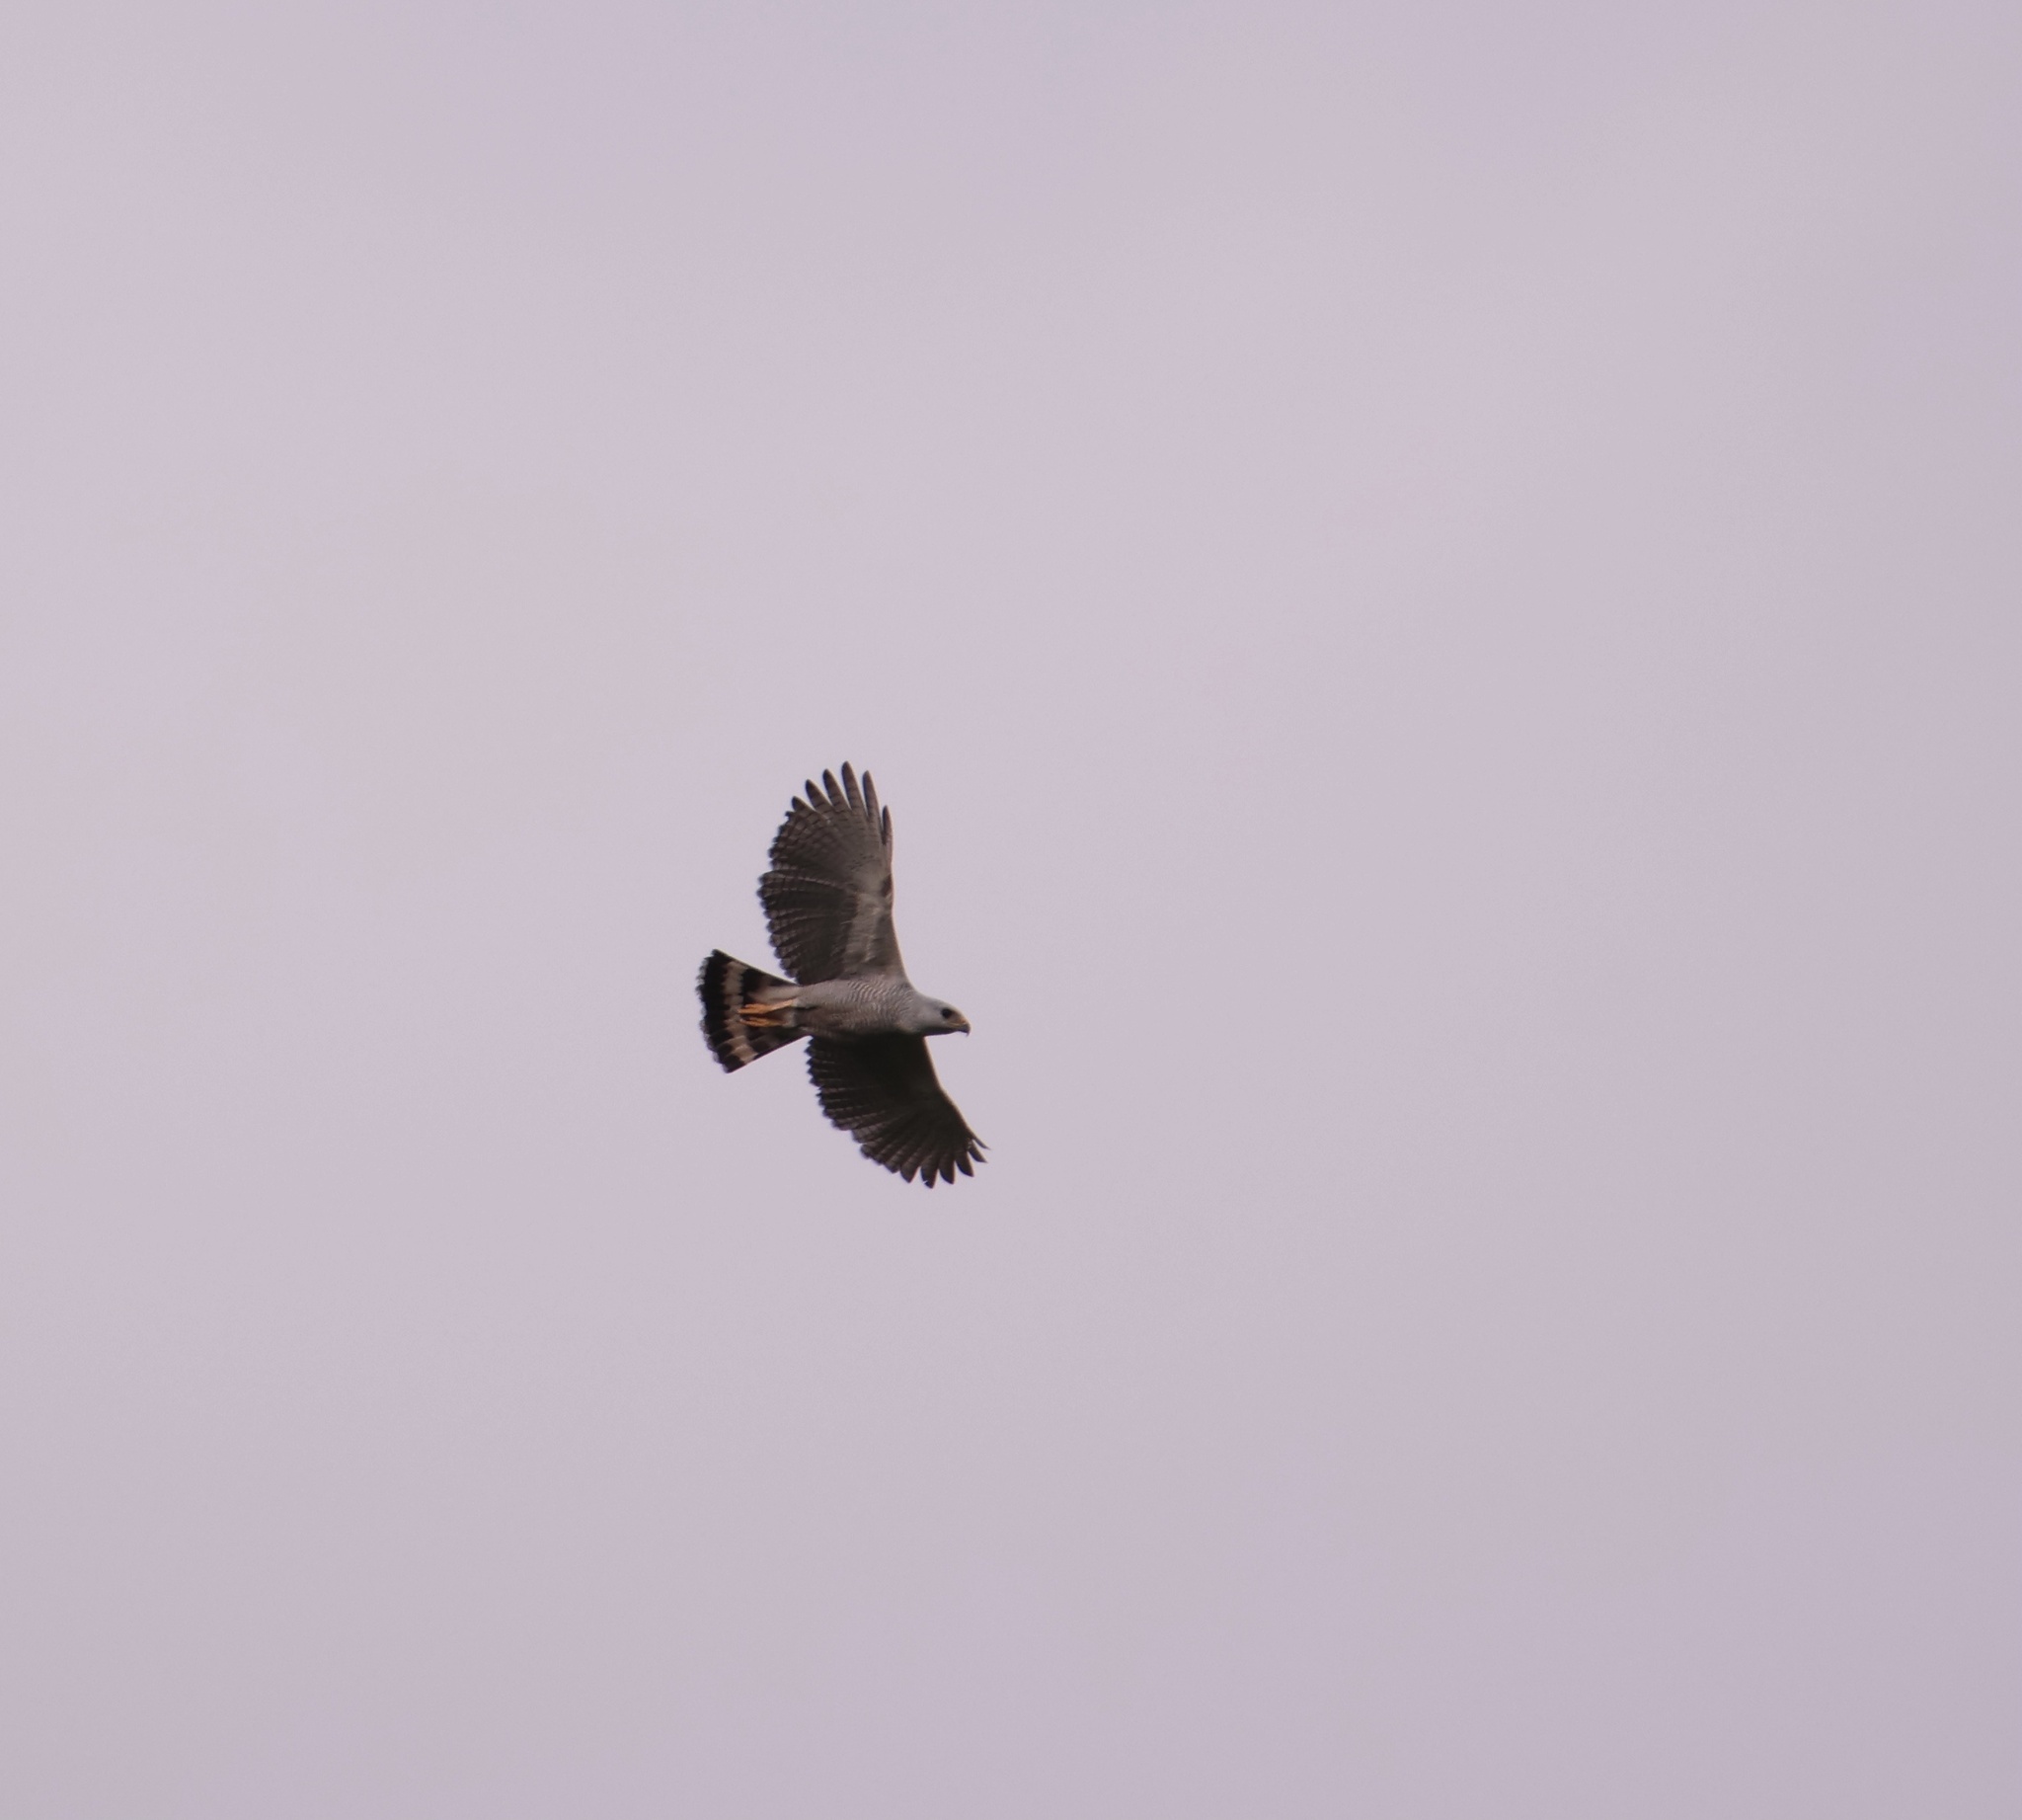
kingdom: Animalia
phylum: Chordata
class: Aves
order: Accipitriformes
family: Accipitridae
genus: Buteo
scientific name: Buteo nitidus
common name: Grey-lined hawk
